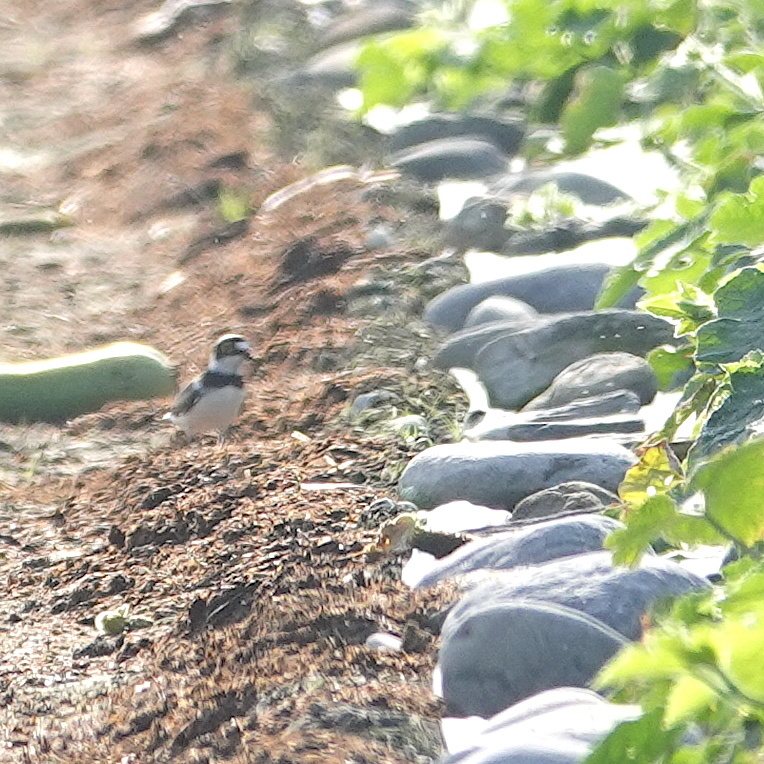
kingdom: Animalia
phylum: Chordata
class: Aves
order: Charadriiformes
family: Charadriidae
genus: Charadrius
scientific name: Charadrius dubius
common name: Little ringed plover
